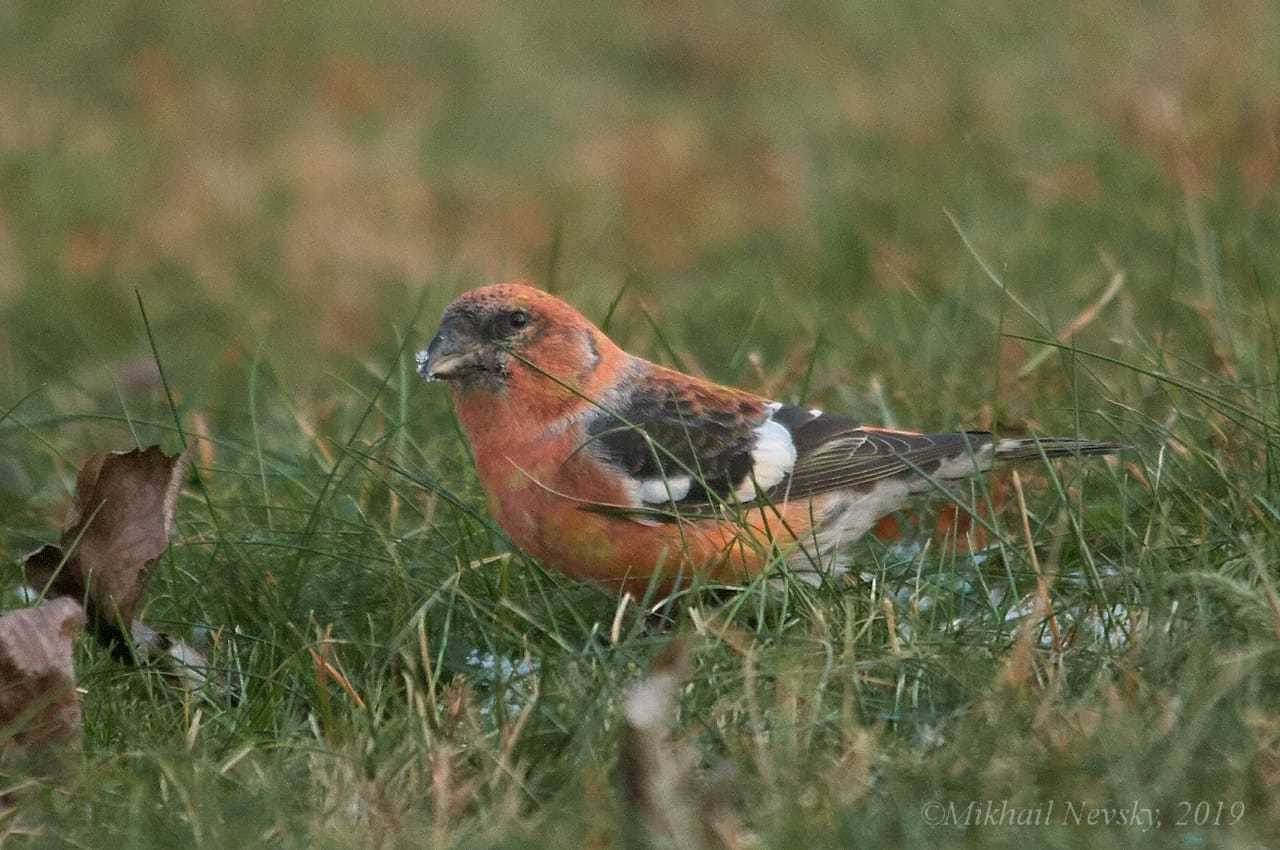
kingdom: Animalia
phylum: Chordata
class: Aves
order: Passeriformes
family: Fringillidae
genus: Loxia
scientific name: Loxia leucoptera
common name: Two-barred crossbill
